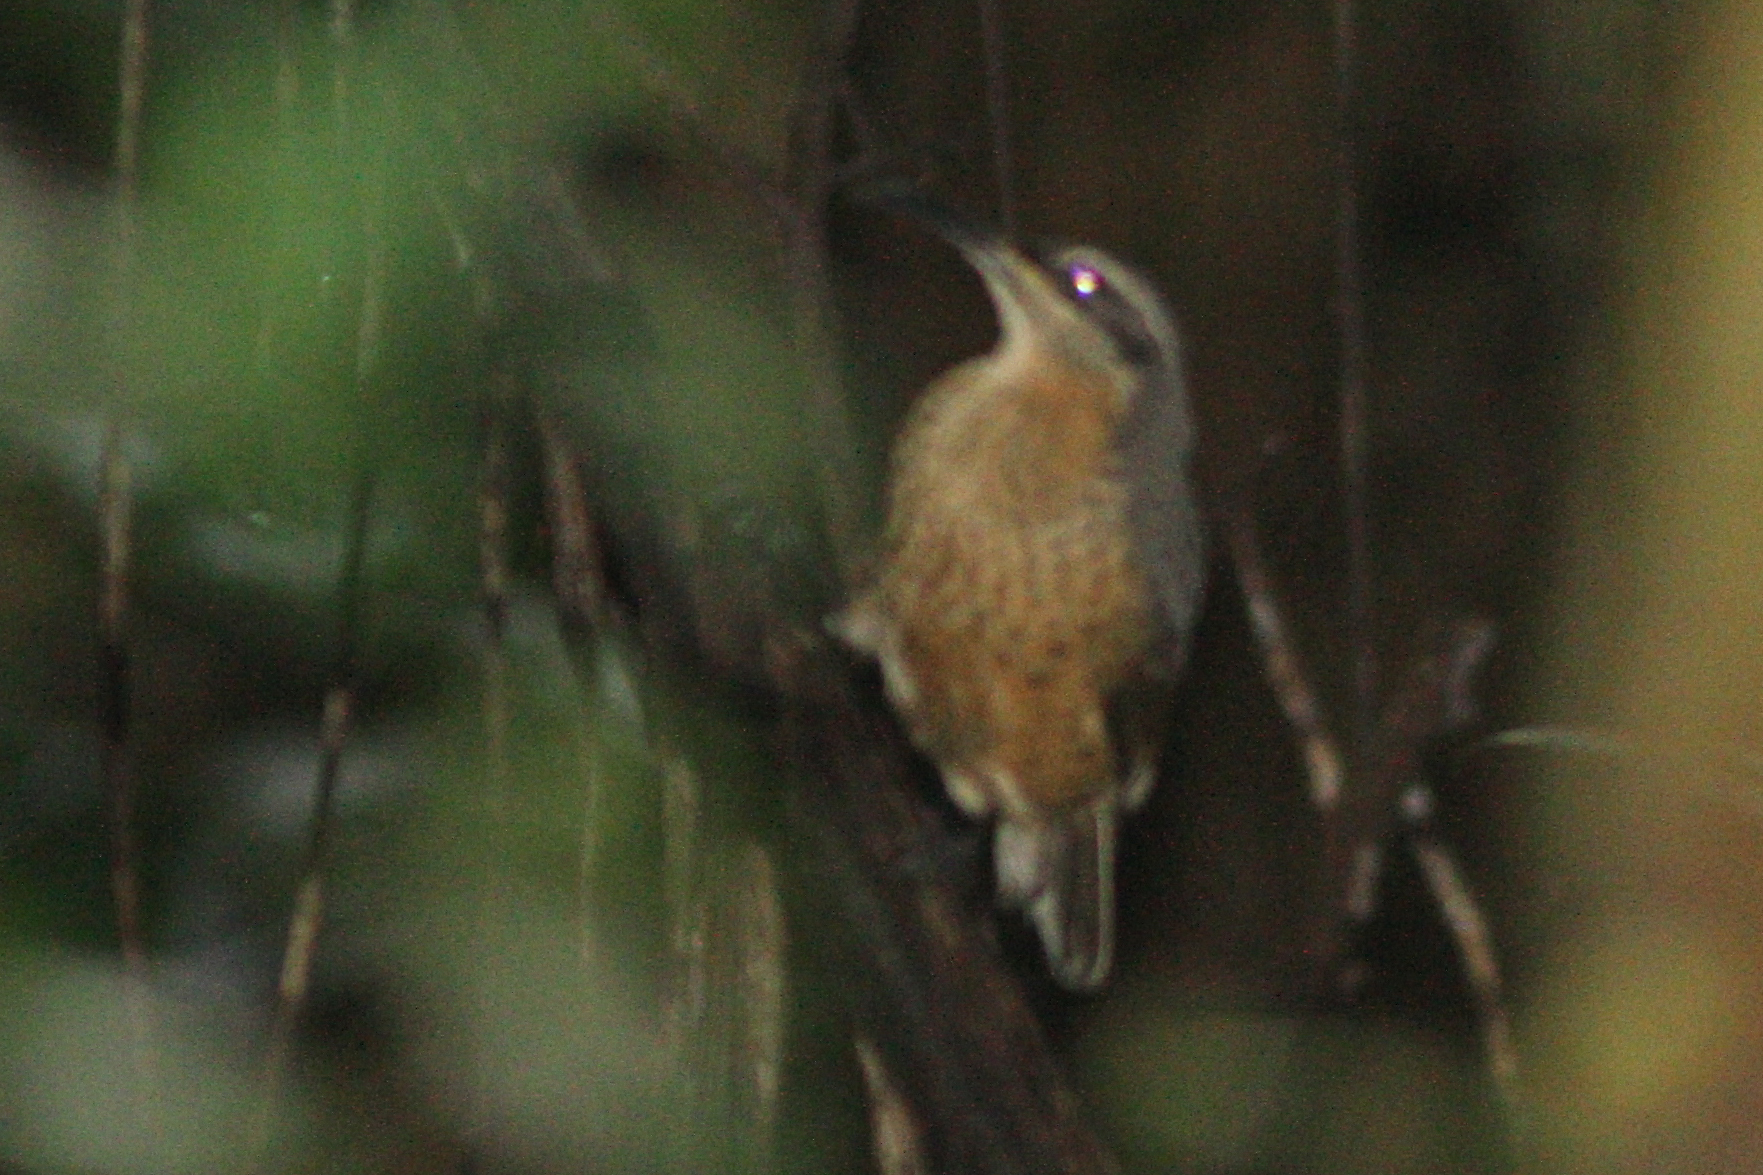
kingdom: Animalia
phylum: Chordata
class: Aves
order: Passeriformes
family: Paradisaeidae
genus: Ptiloris
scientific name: Ptiloris victoriae
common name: Victoria's riflebird
